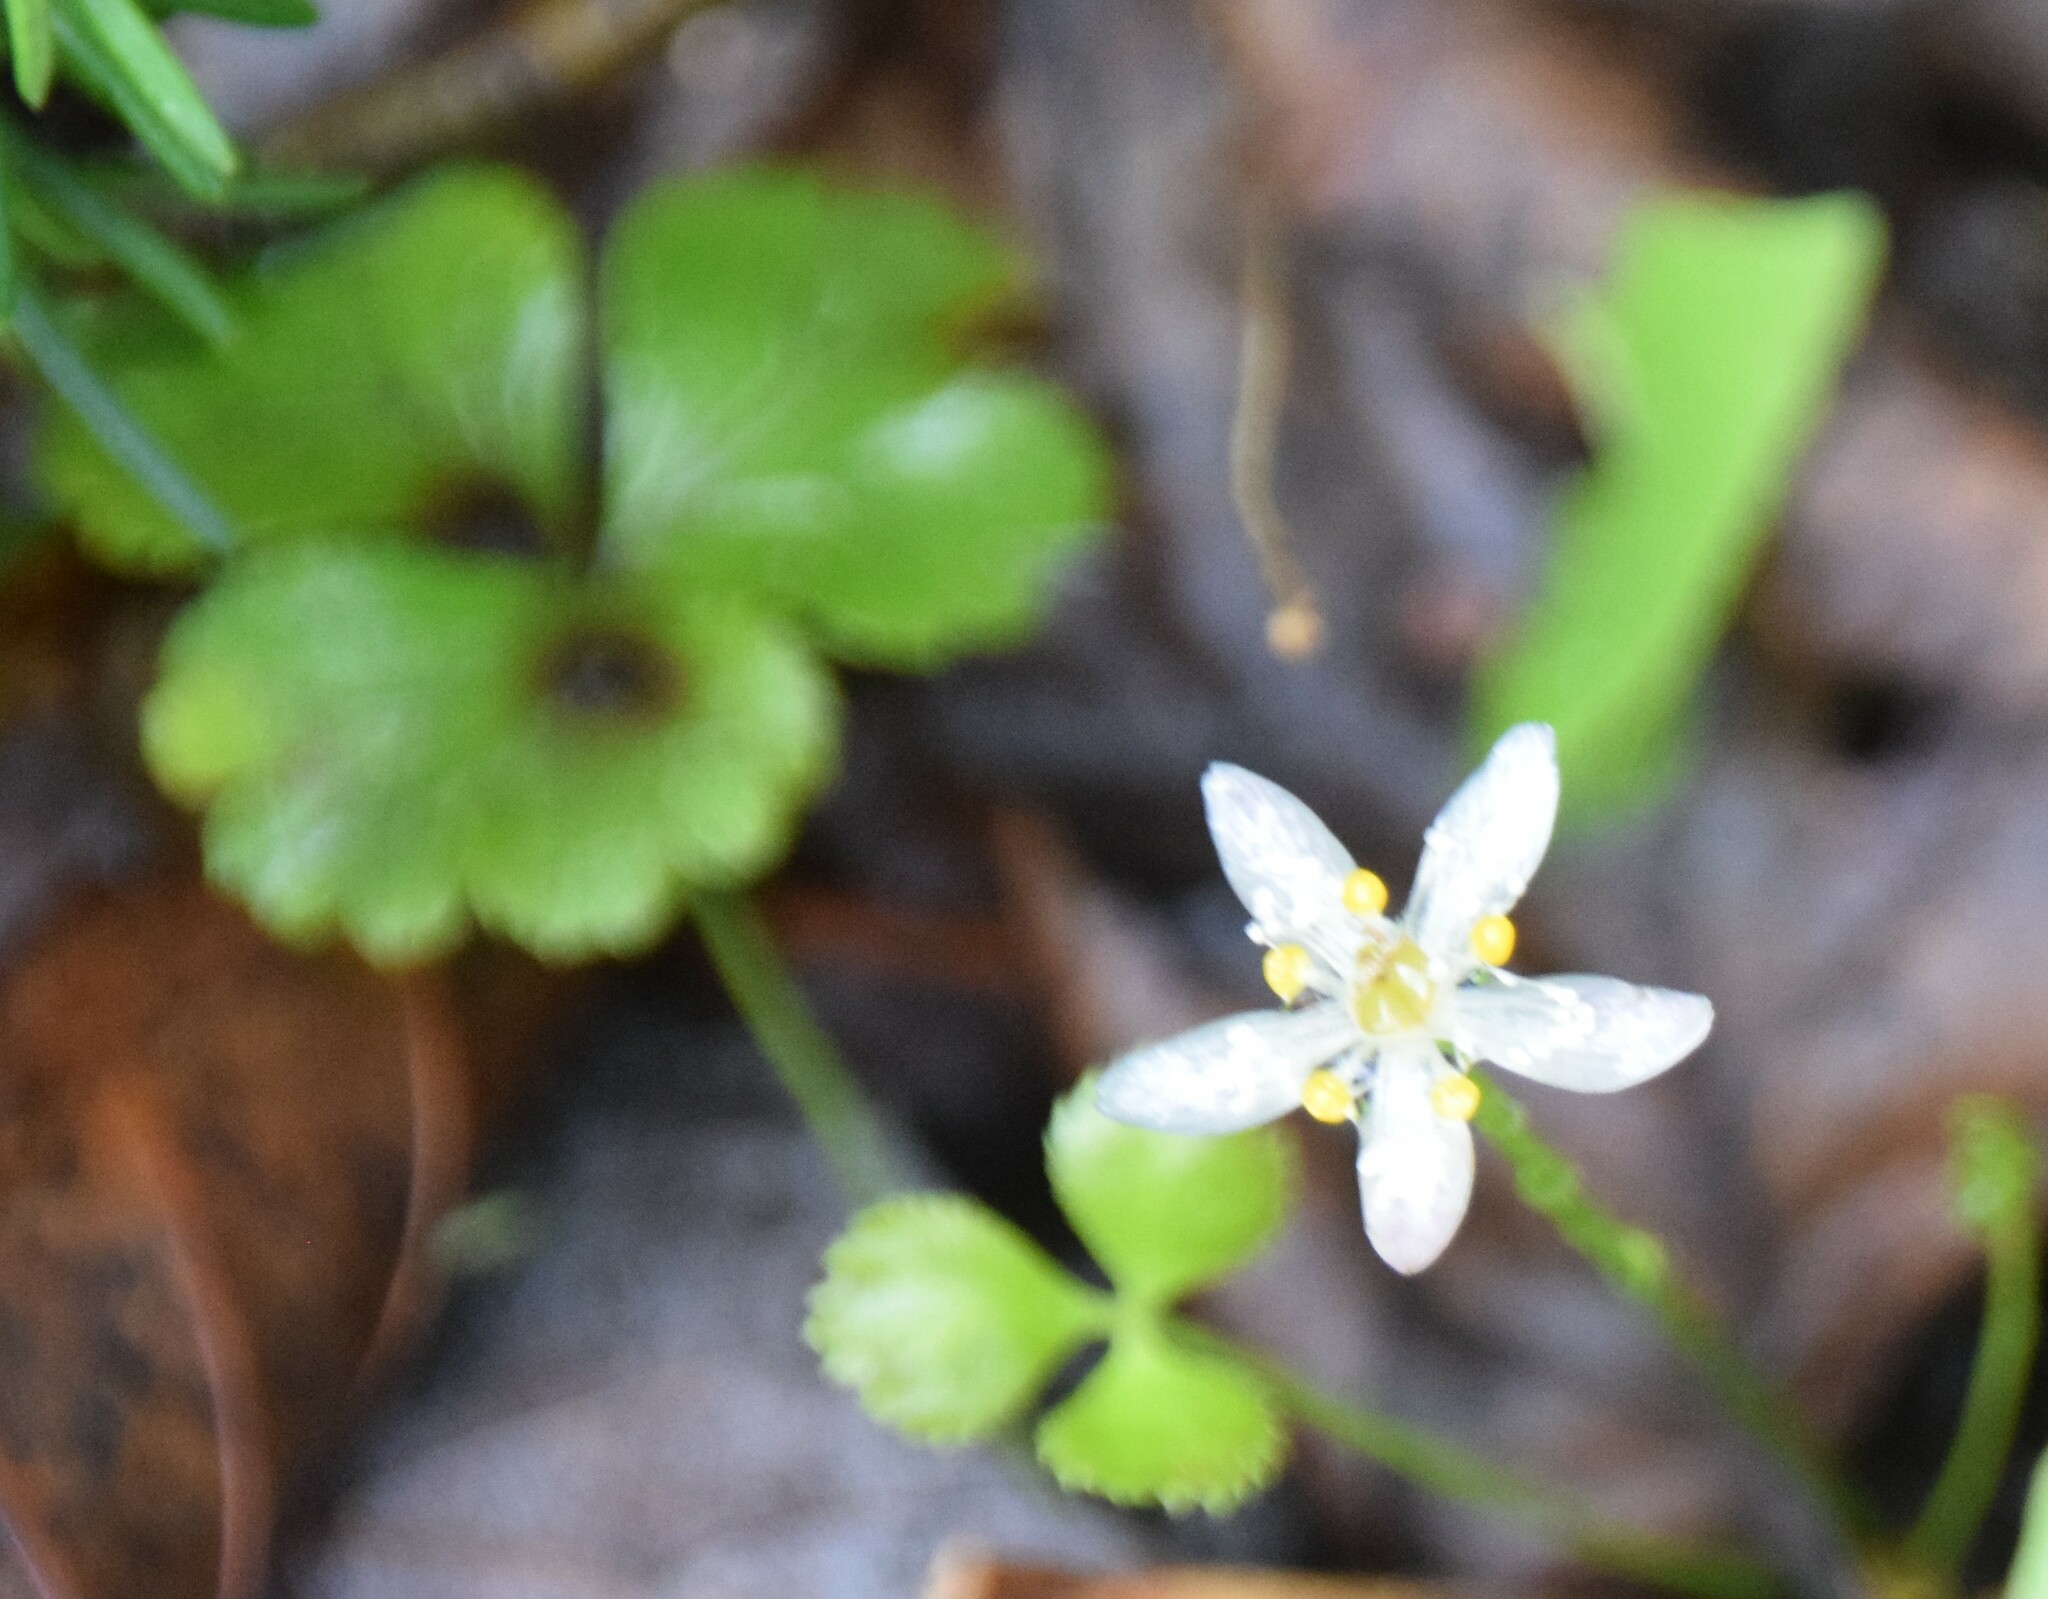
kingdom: Plantae
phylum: Tracheophyta
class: Magnoliopsida
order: Ranunculales
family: Ranunculaceae
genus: Coptis
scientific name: Coptis trifolia
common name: Canker-root
